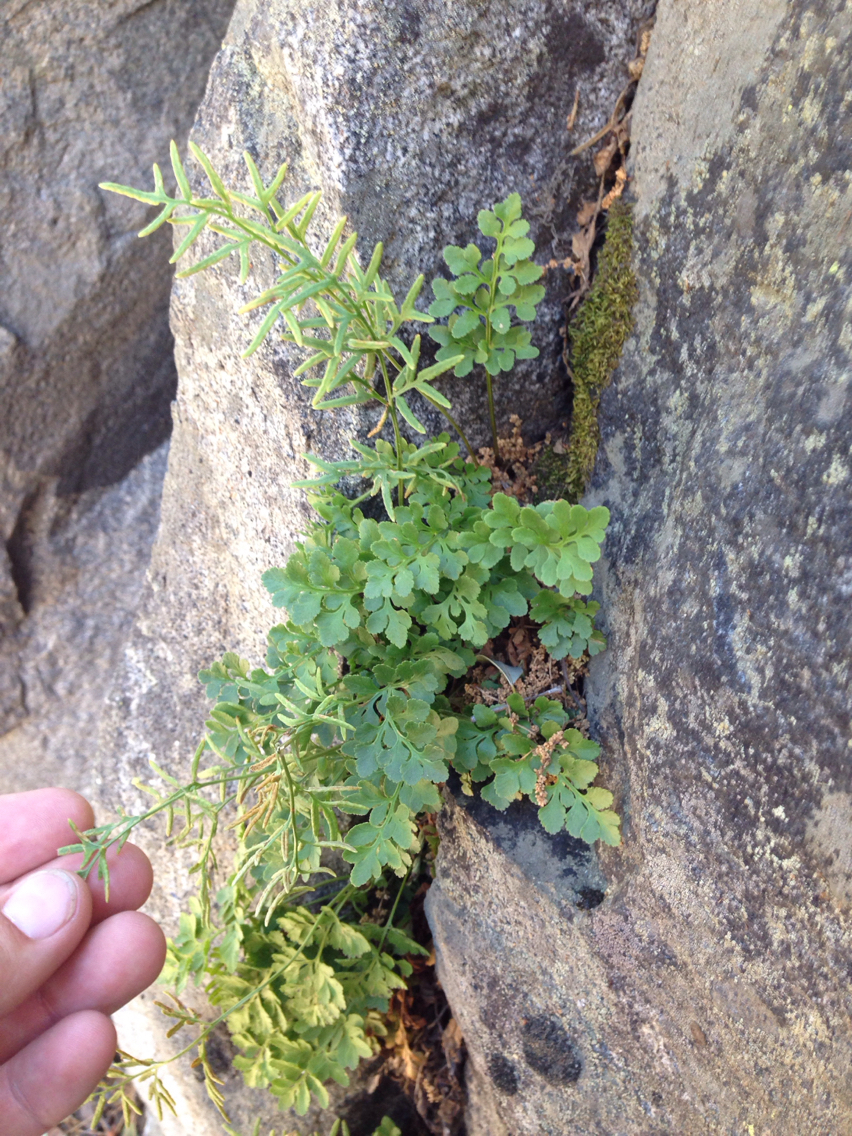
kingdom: Plantae
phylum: Tracheophyta
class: Polypodiopsida
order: Polypodiales
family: Pteridaceae
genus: Cryptogramma
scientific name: Cryptogramma acrostichoides
